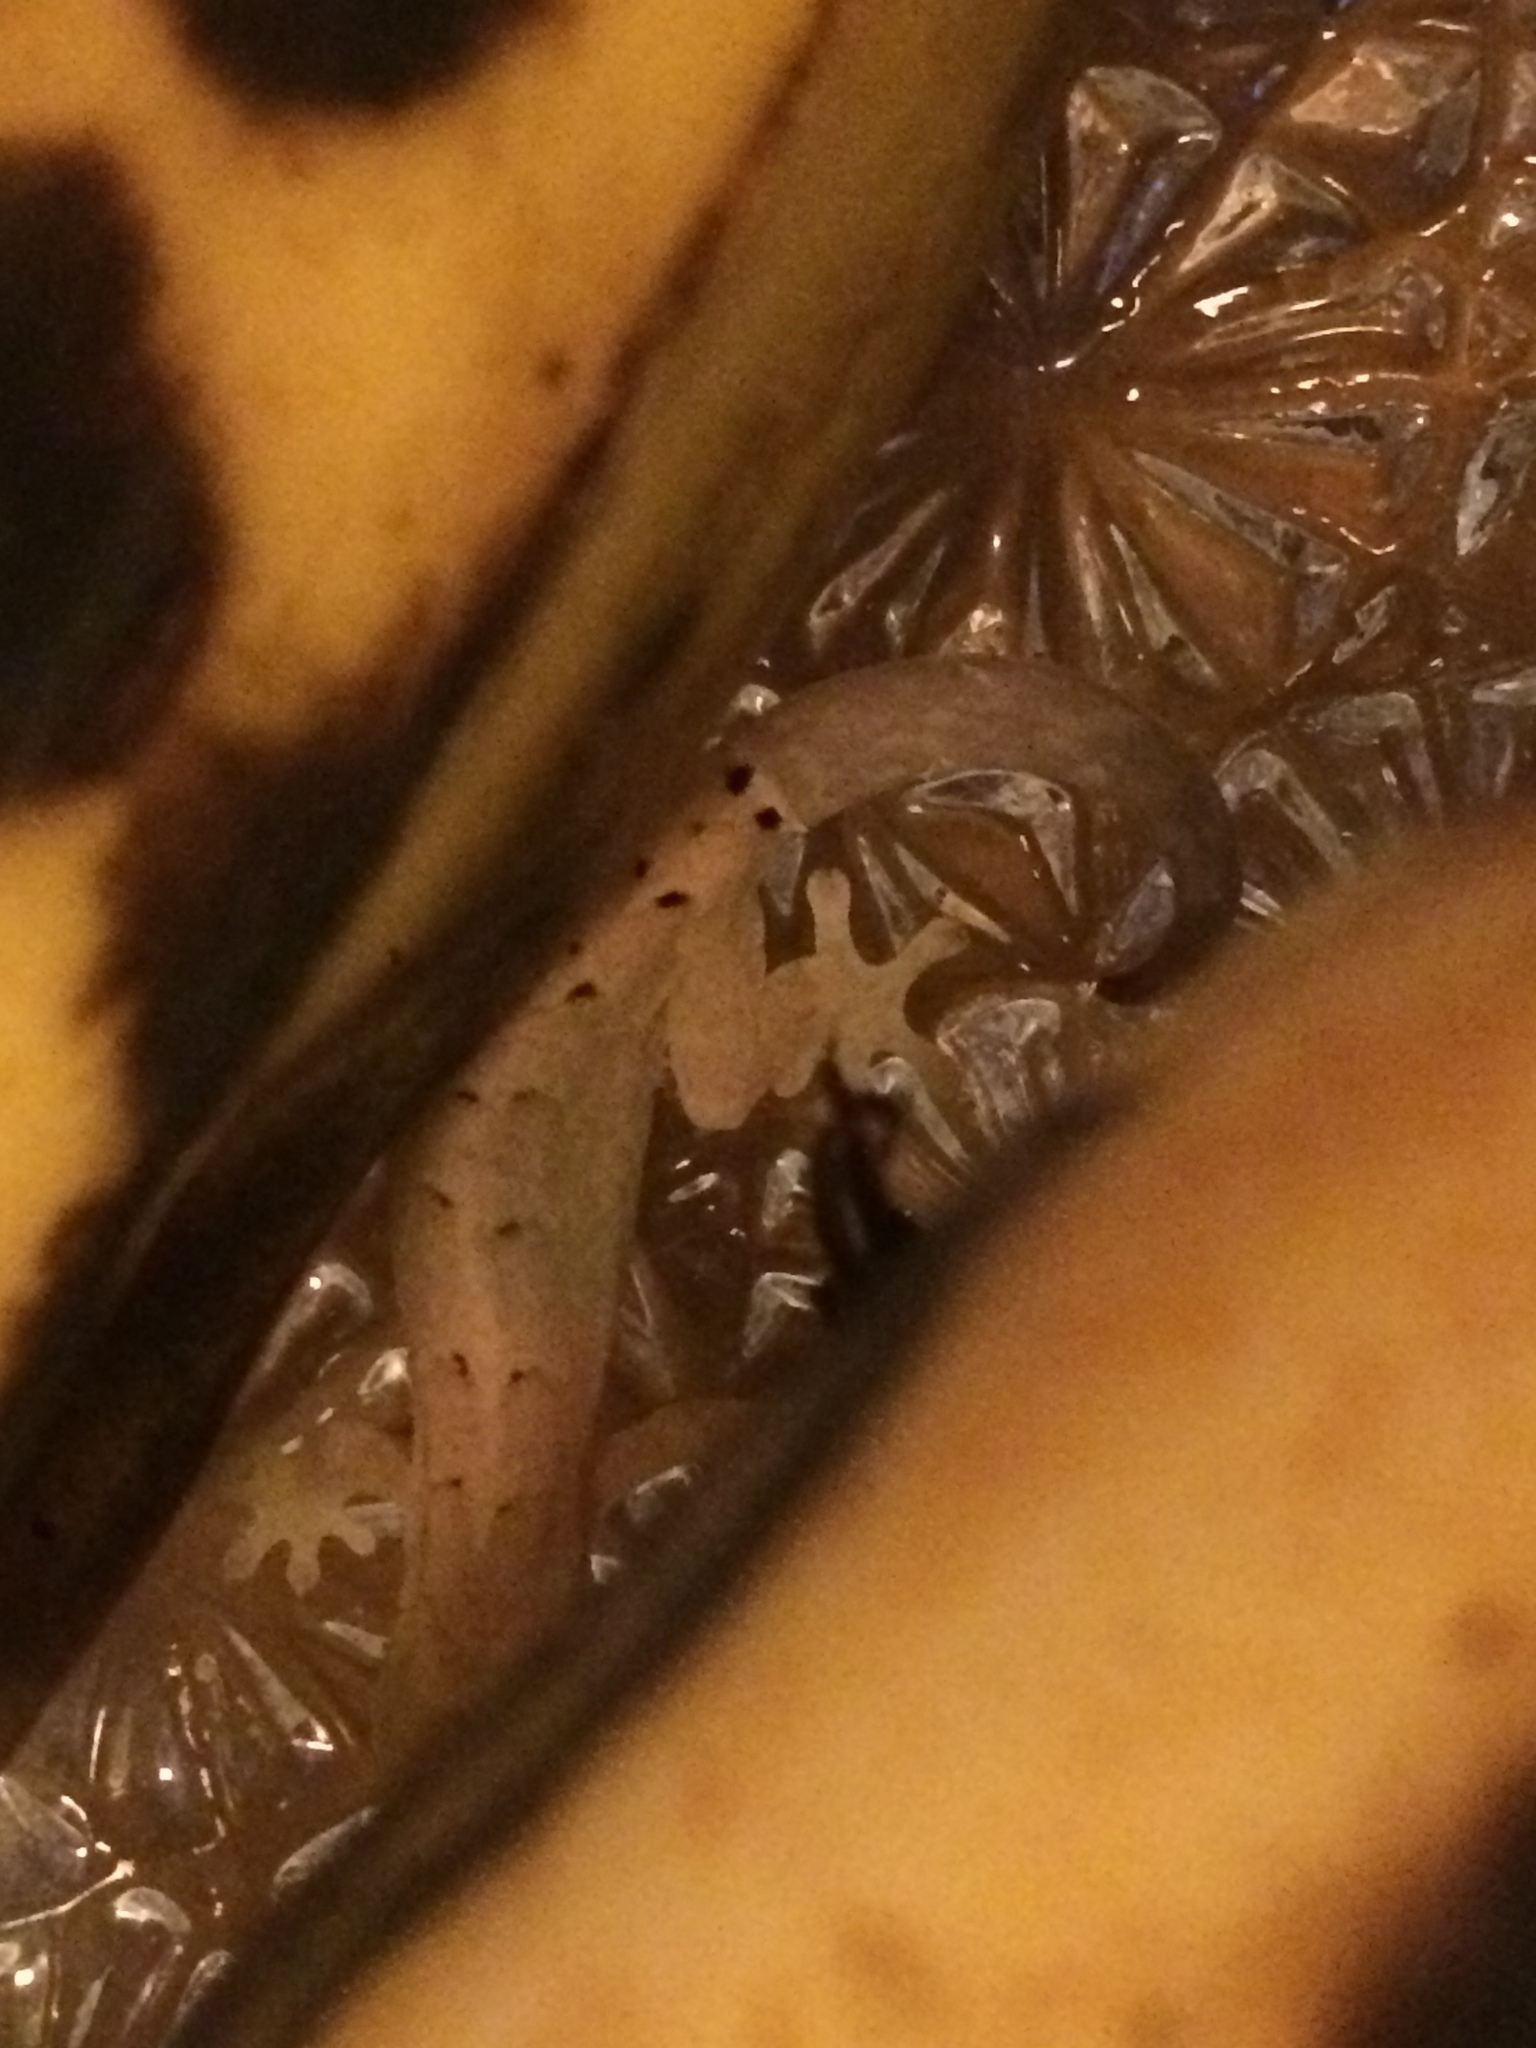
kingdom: Animalia
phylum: Chordata
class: Squamata
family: Gekkonidae
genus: Lepidodactylus
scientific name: Lepidodactylus lugubris
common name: Mourning gecko
